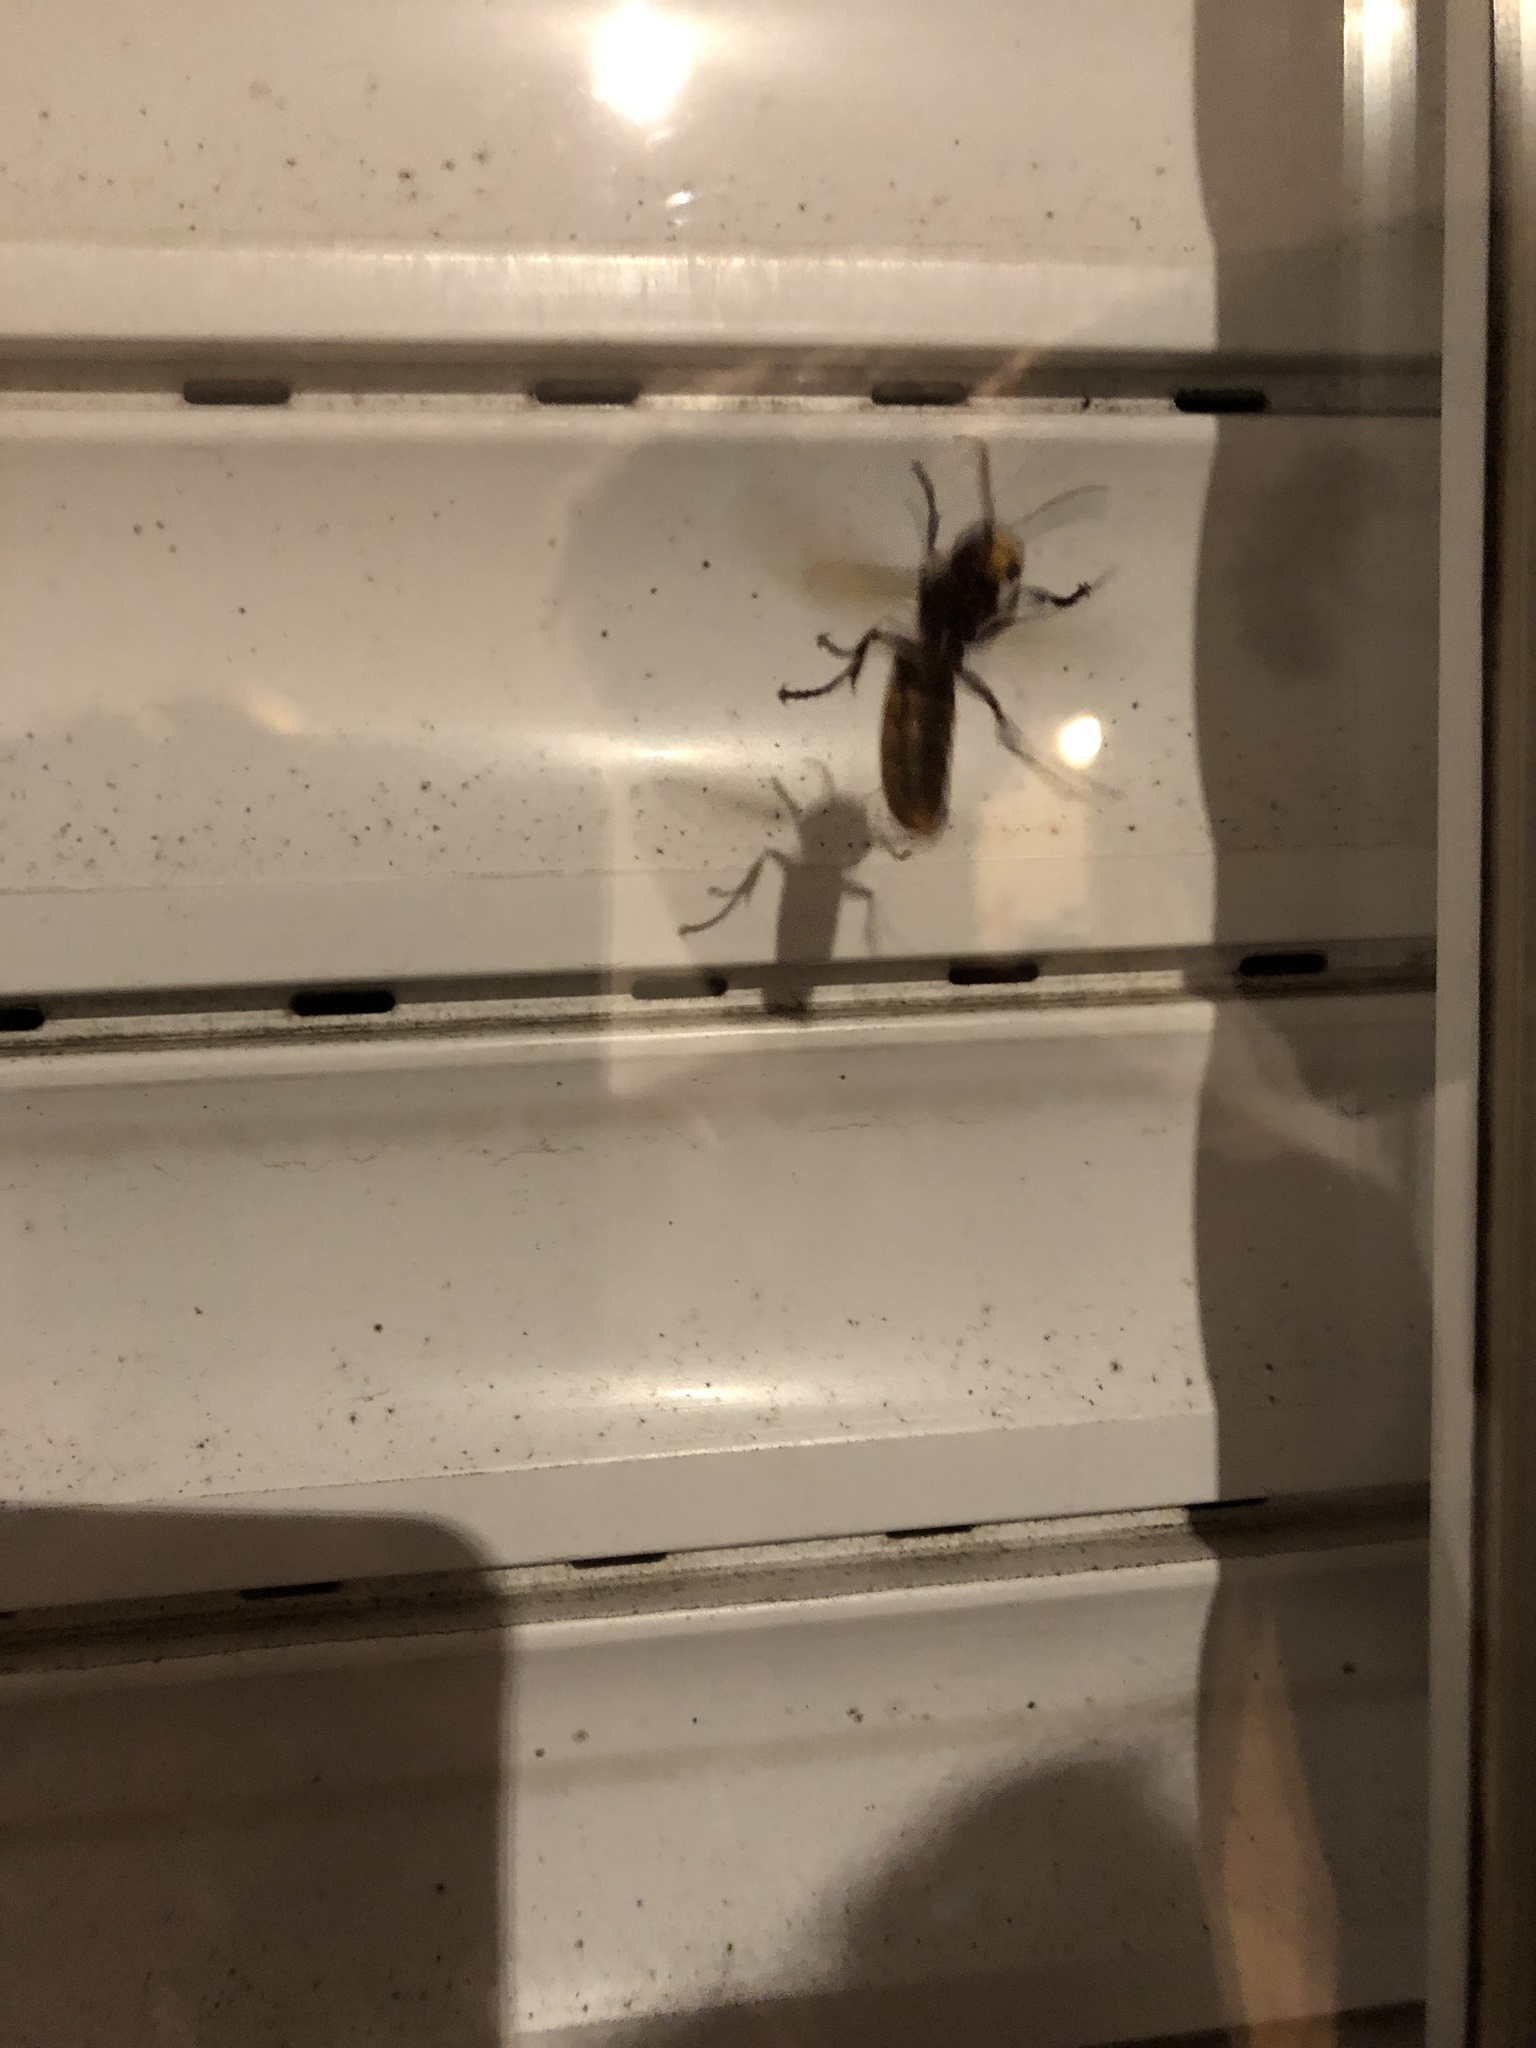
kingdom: Animalia
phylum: Arthropoda
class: Insecta
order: Hymenoptera
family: Vespidae
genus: Vespa
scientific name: Vespa crabro
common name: Hornet
